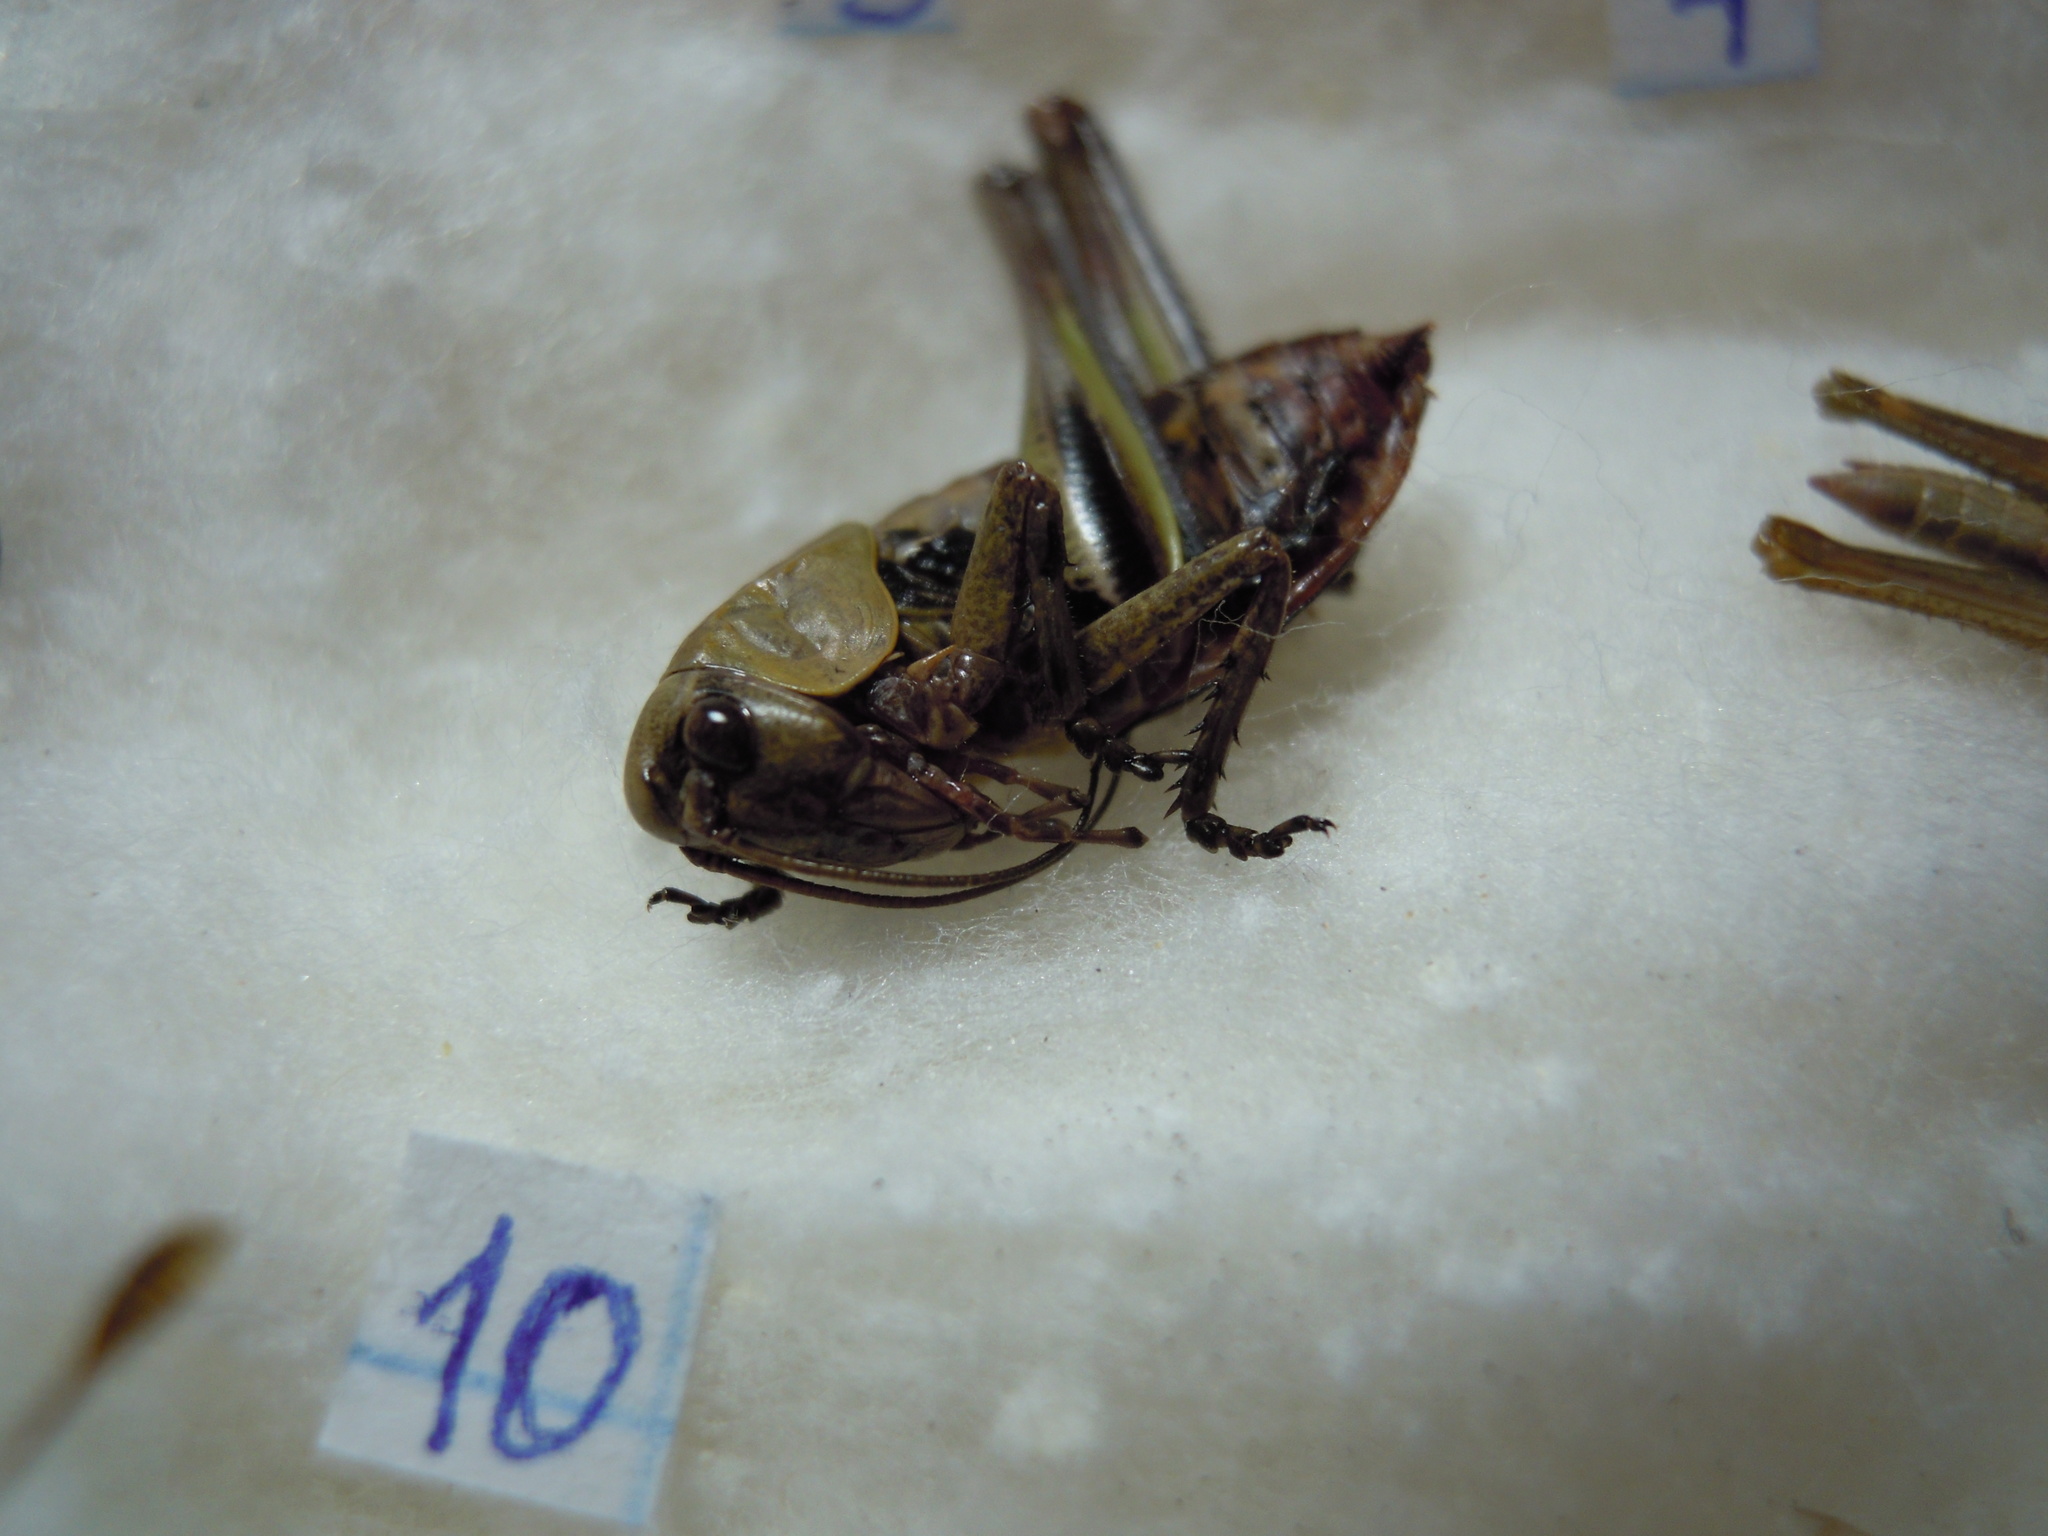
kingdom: Animalia
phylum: Arthropoda
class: Insecta
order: Orthoptera
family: Tettigoniidae
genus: Decticus
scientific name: Decticus verrucivorus
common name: Wart-biter
